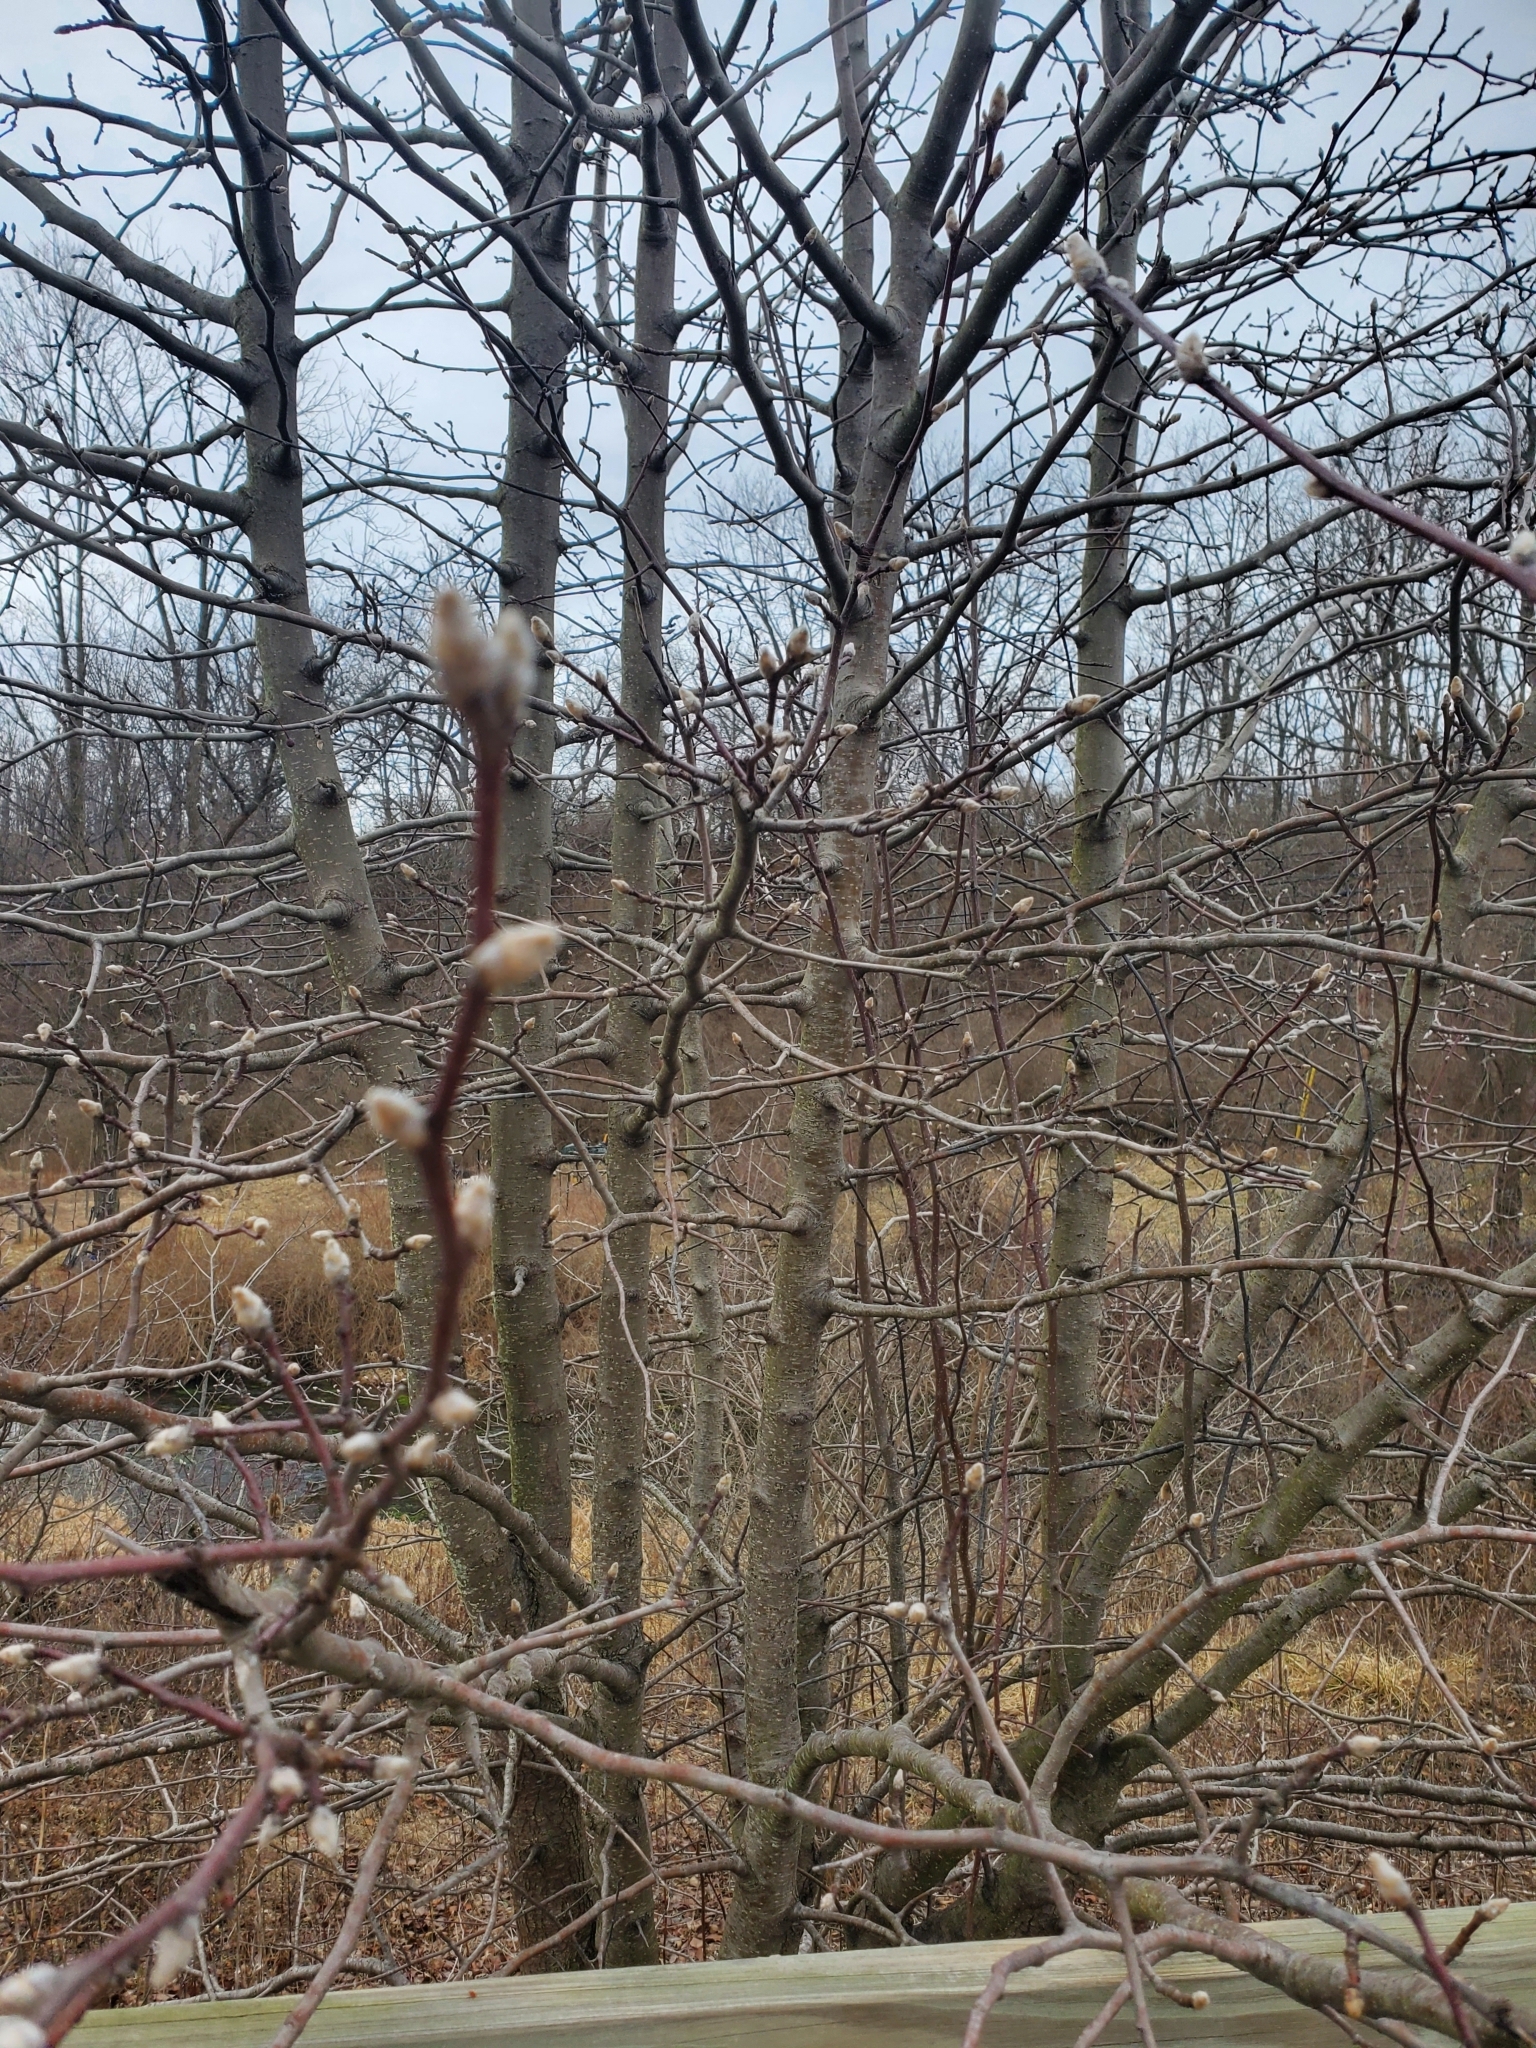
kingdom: Plantae
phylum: Tracheophyta
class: Magnoliopsida
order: Rosales
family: Rosaceae
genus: Pyrus
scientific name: Pyrus calleryana
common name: Callery pear
